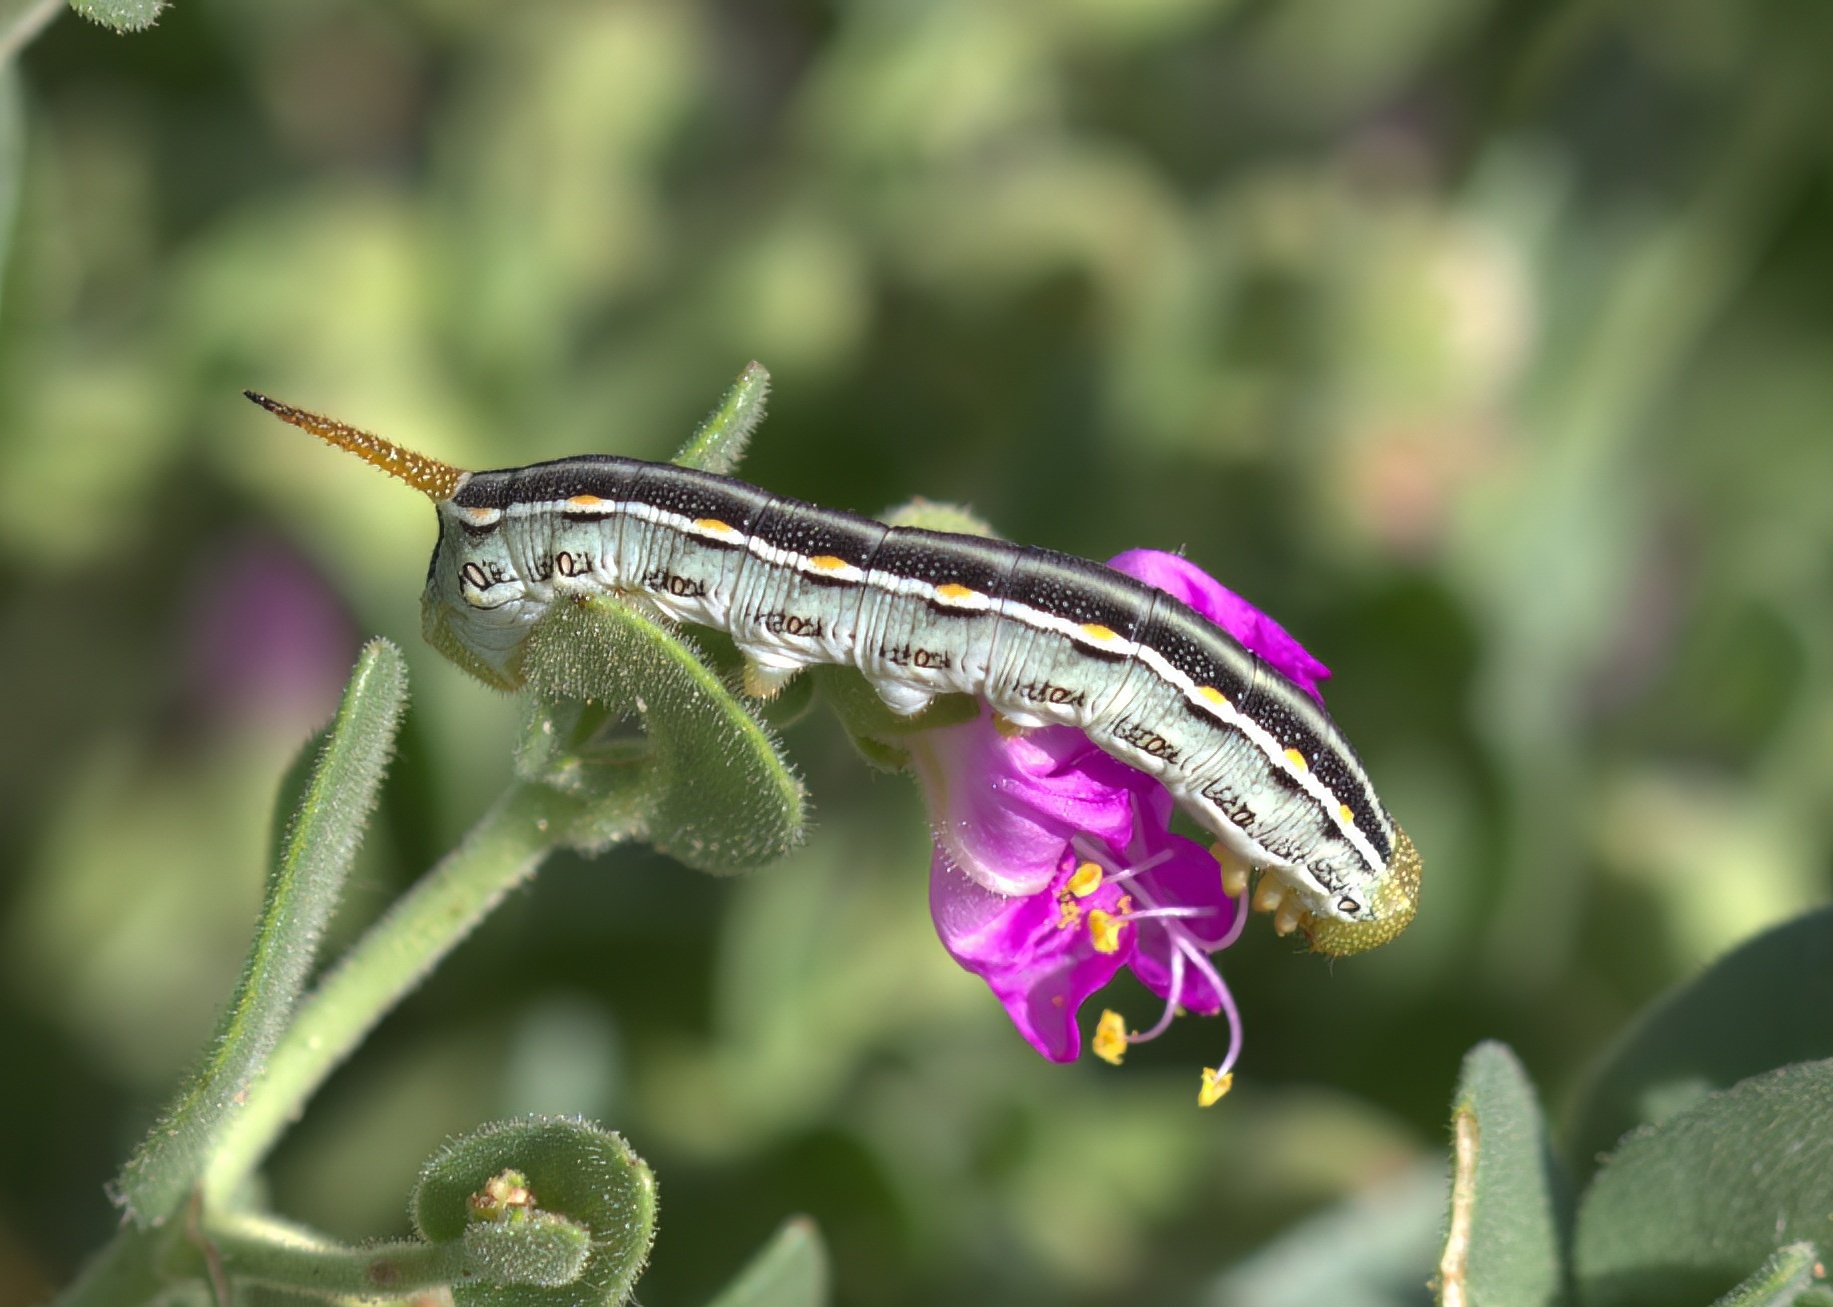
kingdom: Animalia
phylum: Arthropoda
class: Insecta
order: Lepidoptera
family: Sphingidae
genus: Hyles
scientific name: Hyles lineata
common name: White-lined sphinx
